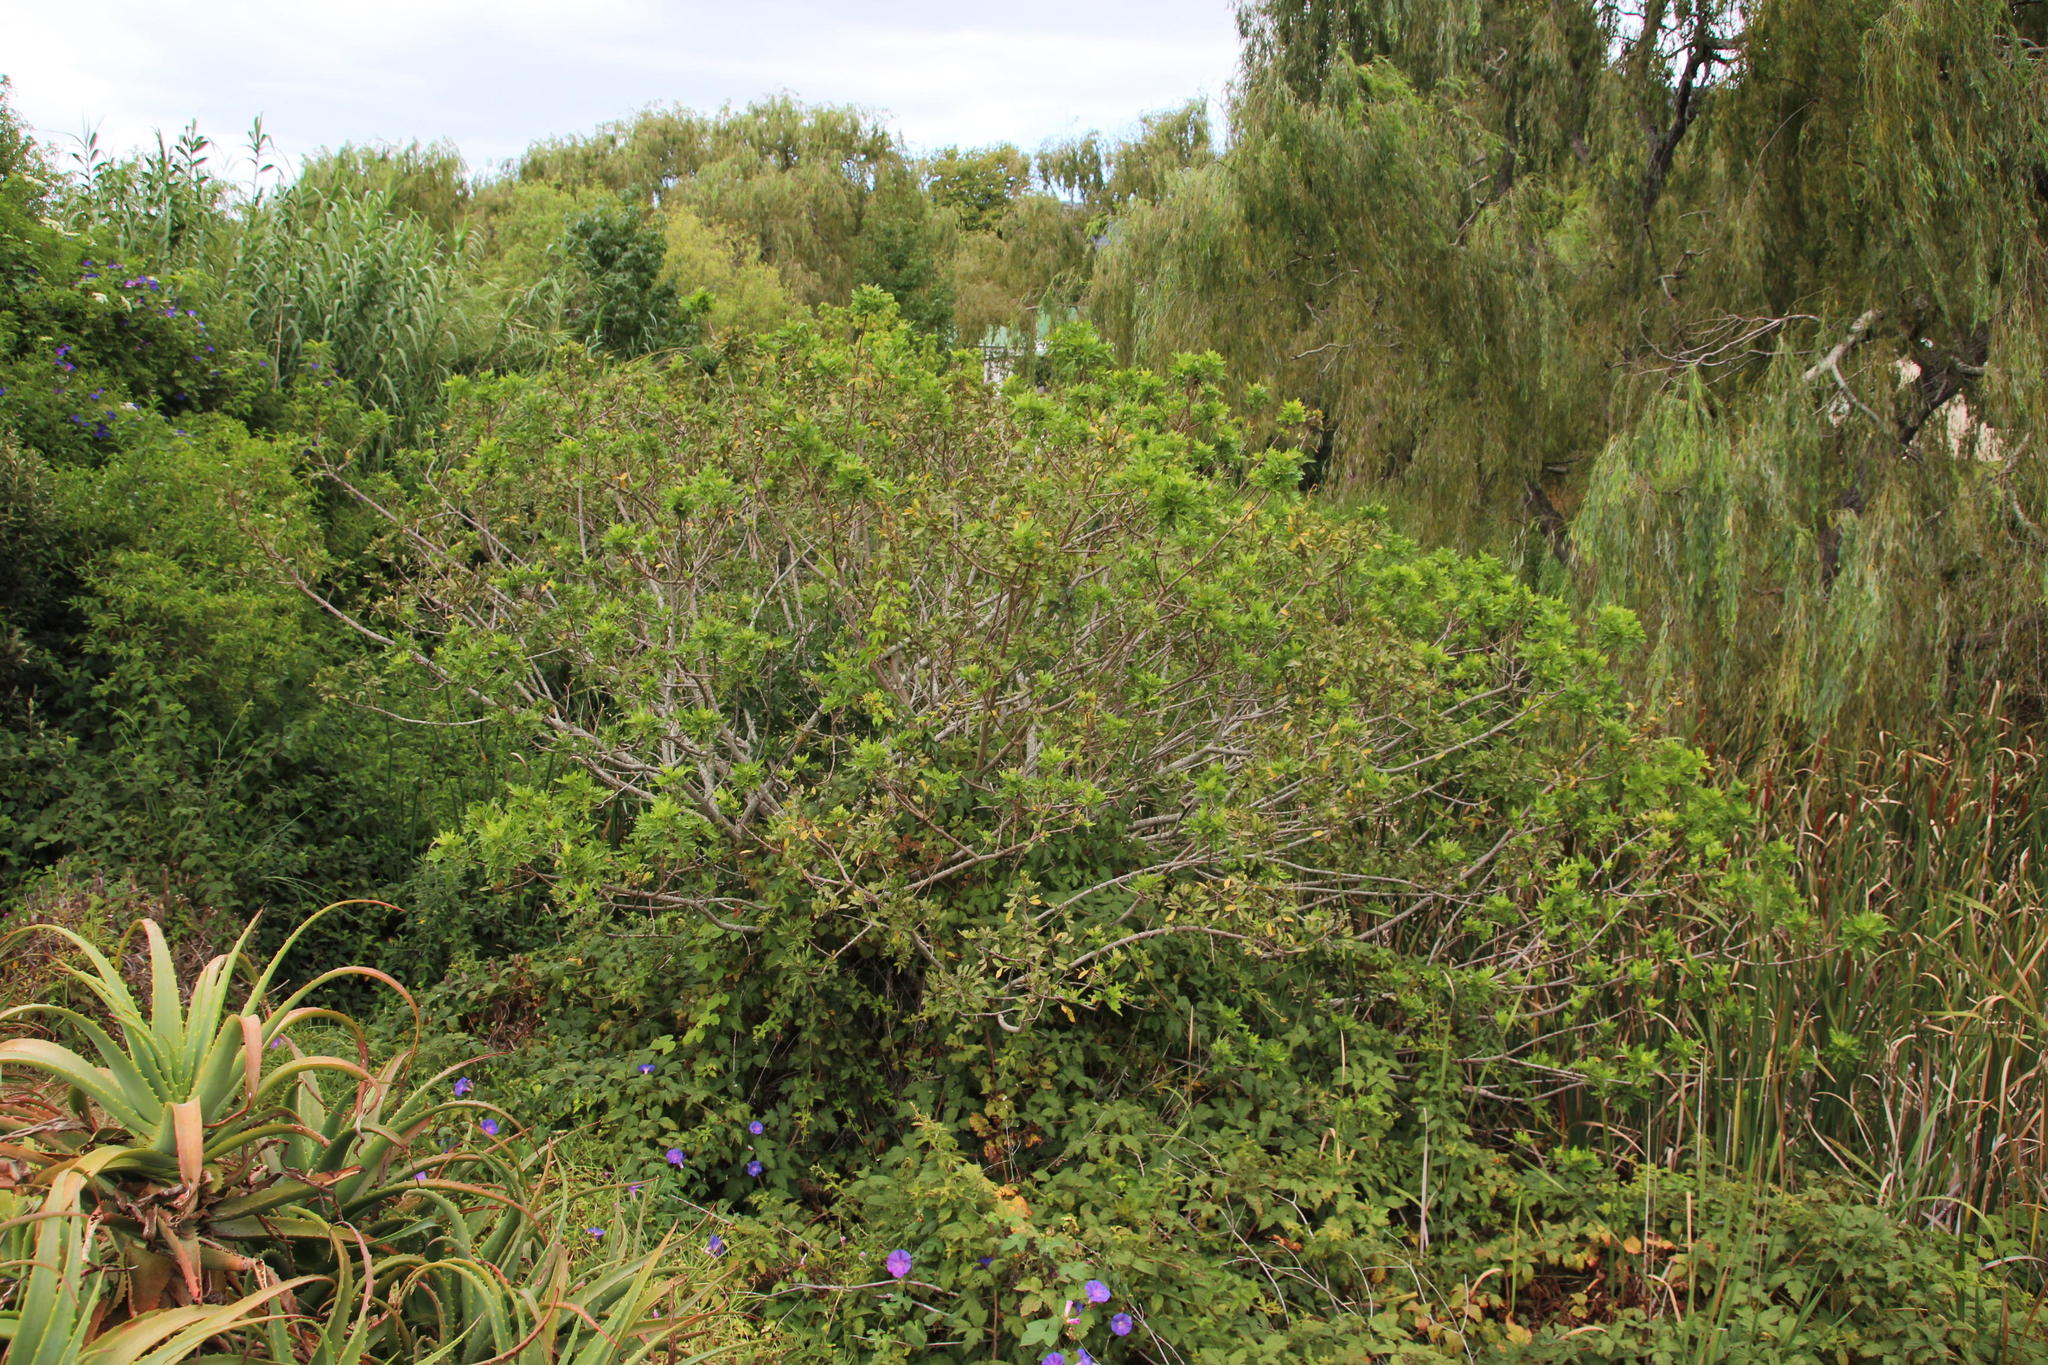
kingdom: Plantae
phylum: Tracheophyta
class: Magnoliopsida
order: Sapindales
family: Anacardiaceae
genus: Schinus
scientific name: Schinus terebinthifolia
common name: Brazilian peppertree
